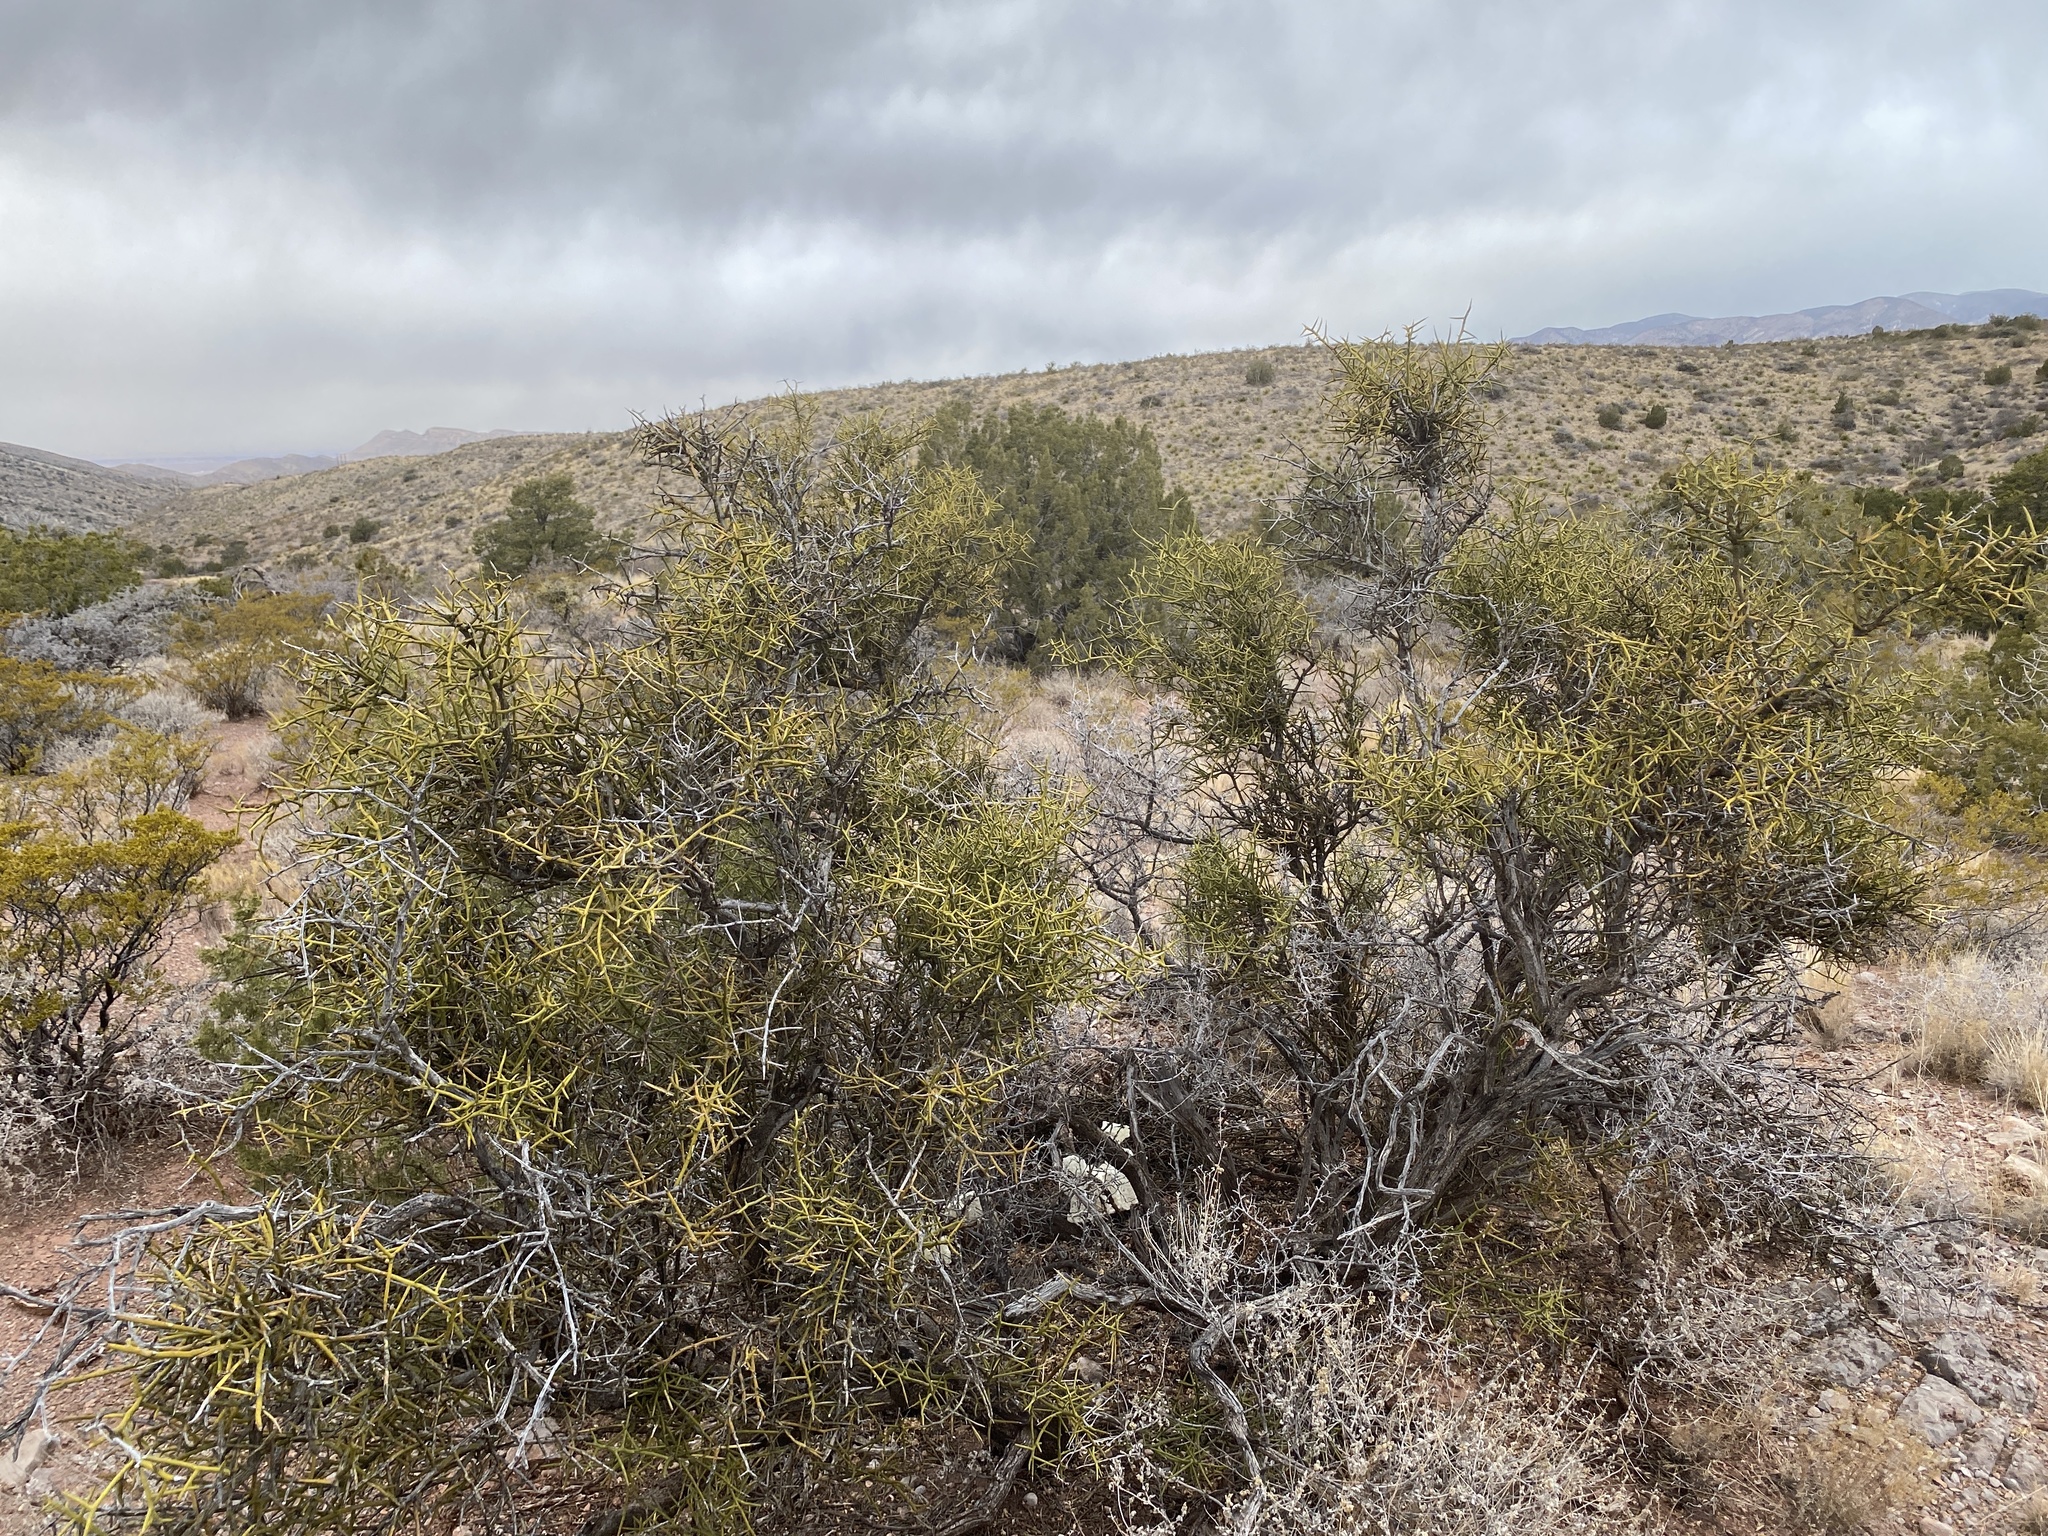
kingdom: Plantae
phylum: Tracheophyta
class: Magnoliopsida
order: Brassicales
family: Koeberliniaceae
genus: Koeberlinia
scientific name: Koeberlinia spinosa
